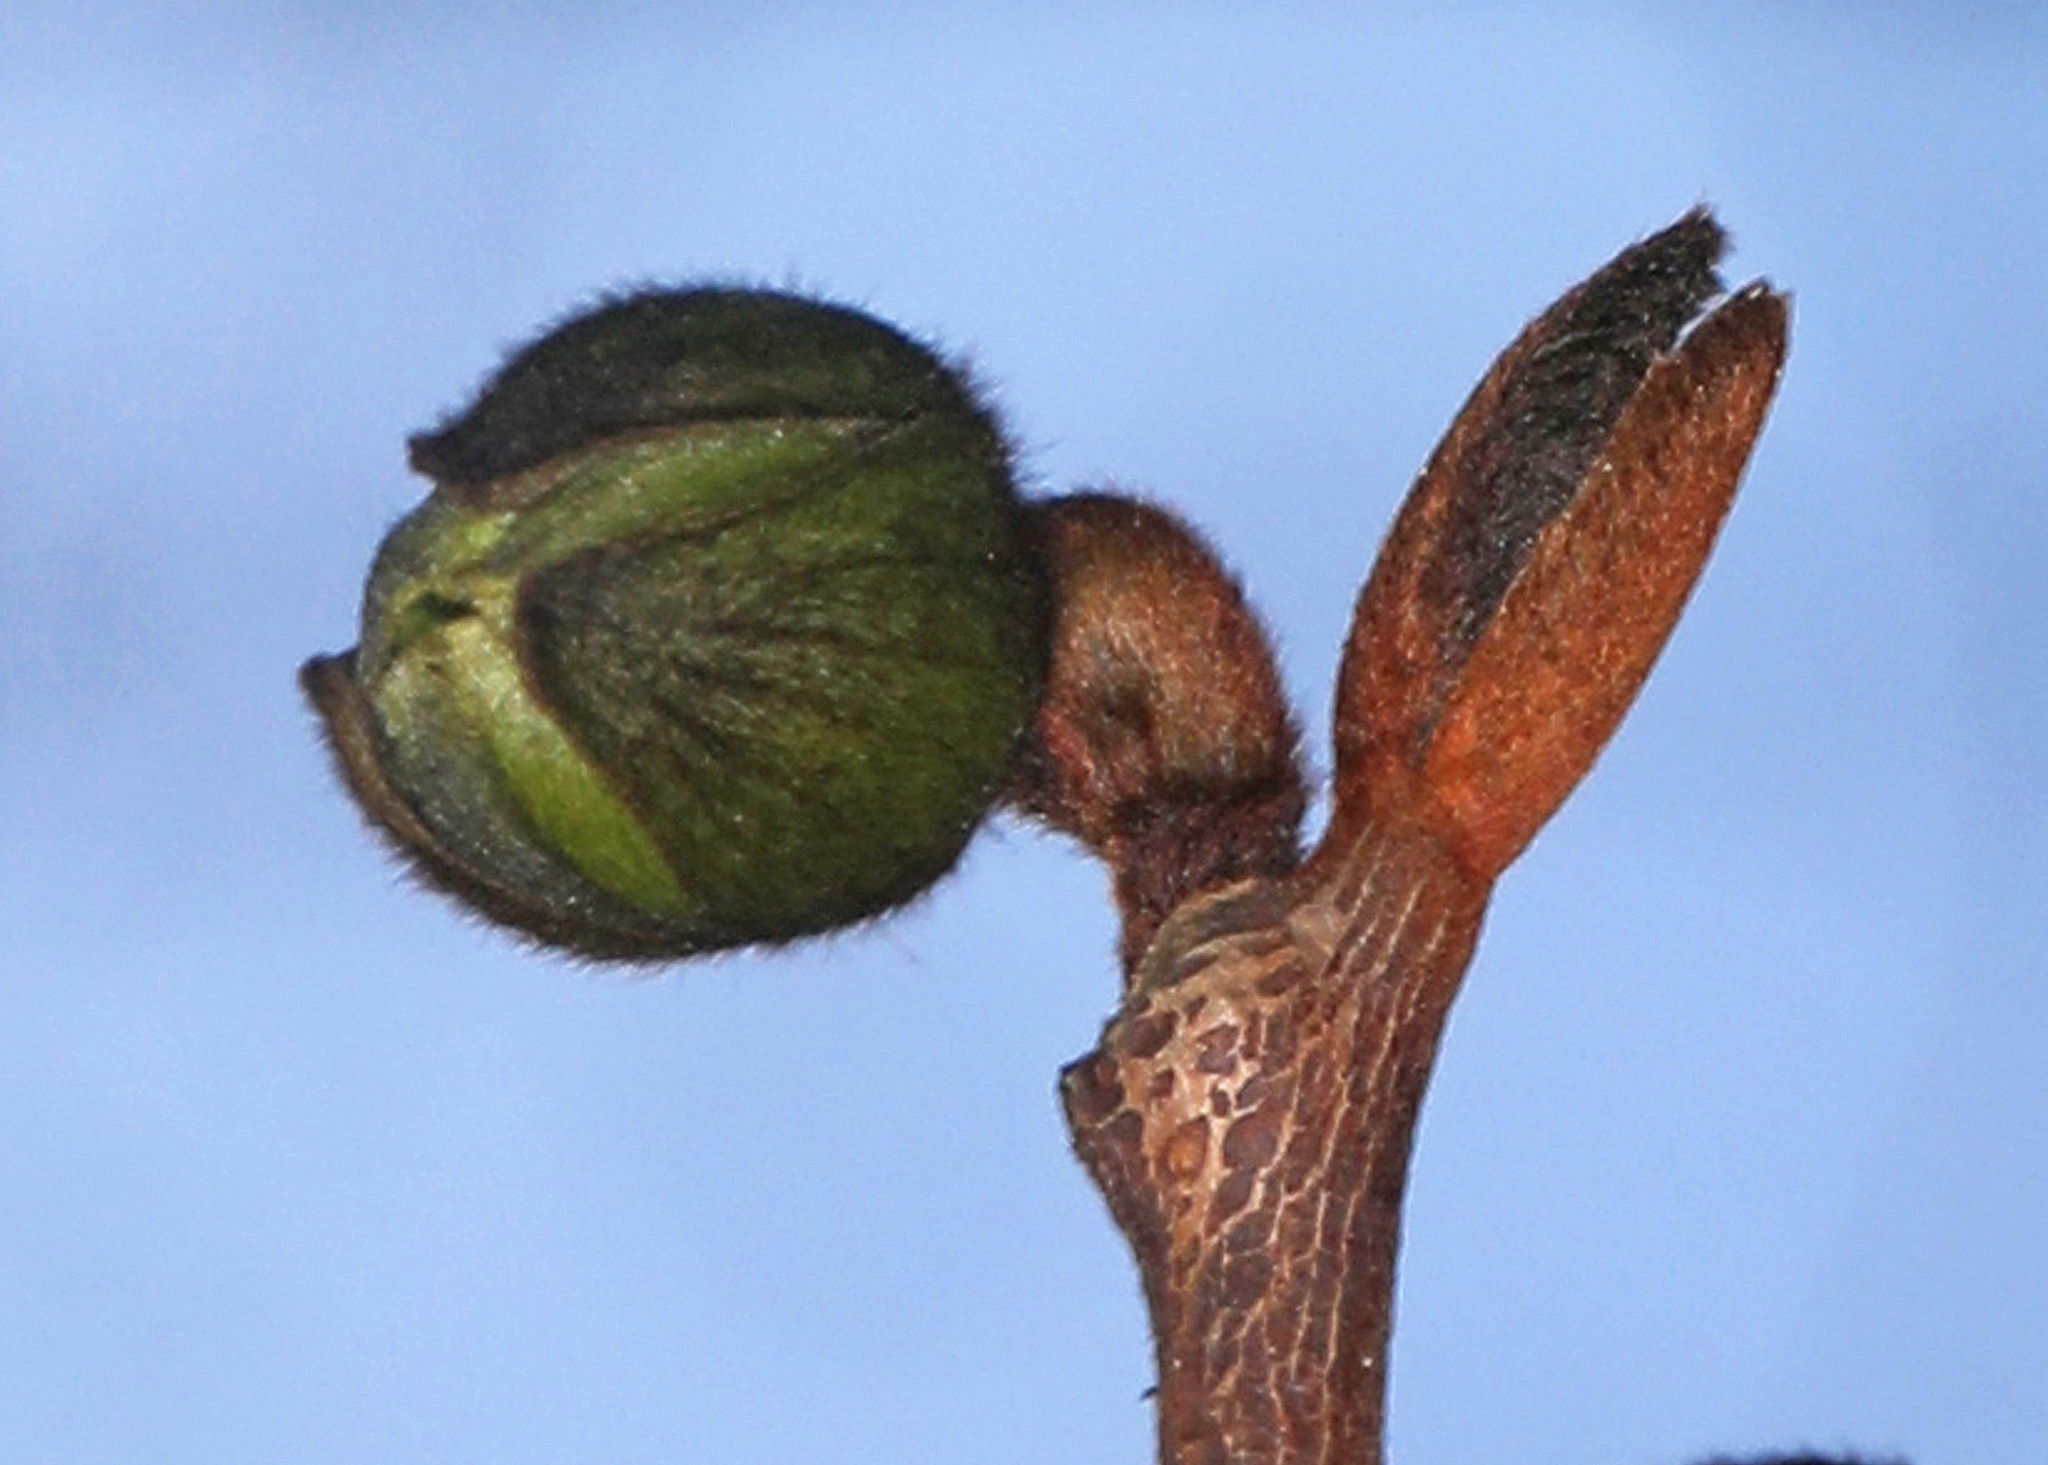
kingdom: Plantae
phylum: Tracheophyta
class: Magnoliopsida
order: Magnoliales
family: Annonaceae
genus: Asimina
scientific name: Asimina triloba
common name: Dog-banana
